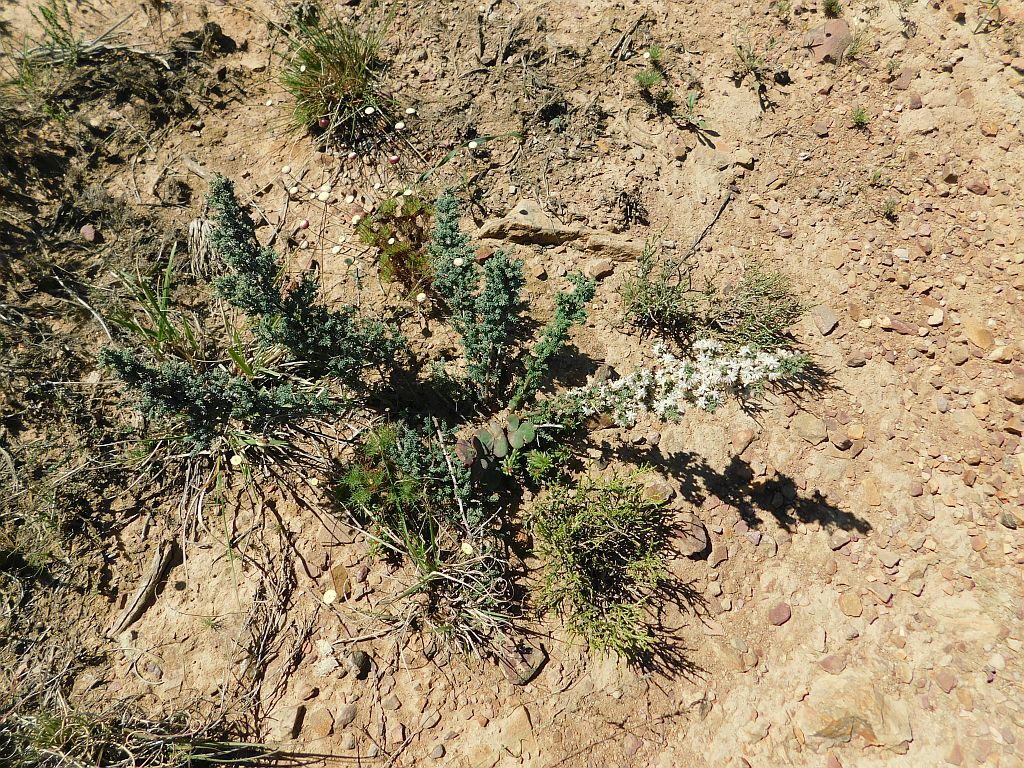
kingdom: Plantae
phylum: Tracheophyta
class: Liliopsida
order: Asparagales
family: Asparagaceae
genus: Asparagus
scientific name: Asparagus capensis
